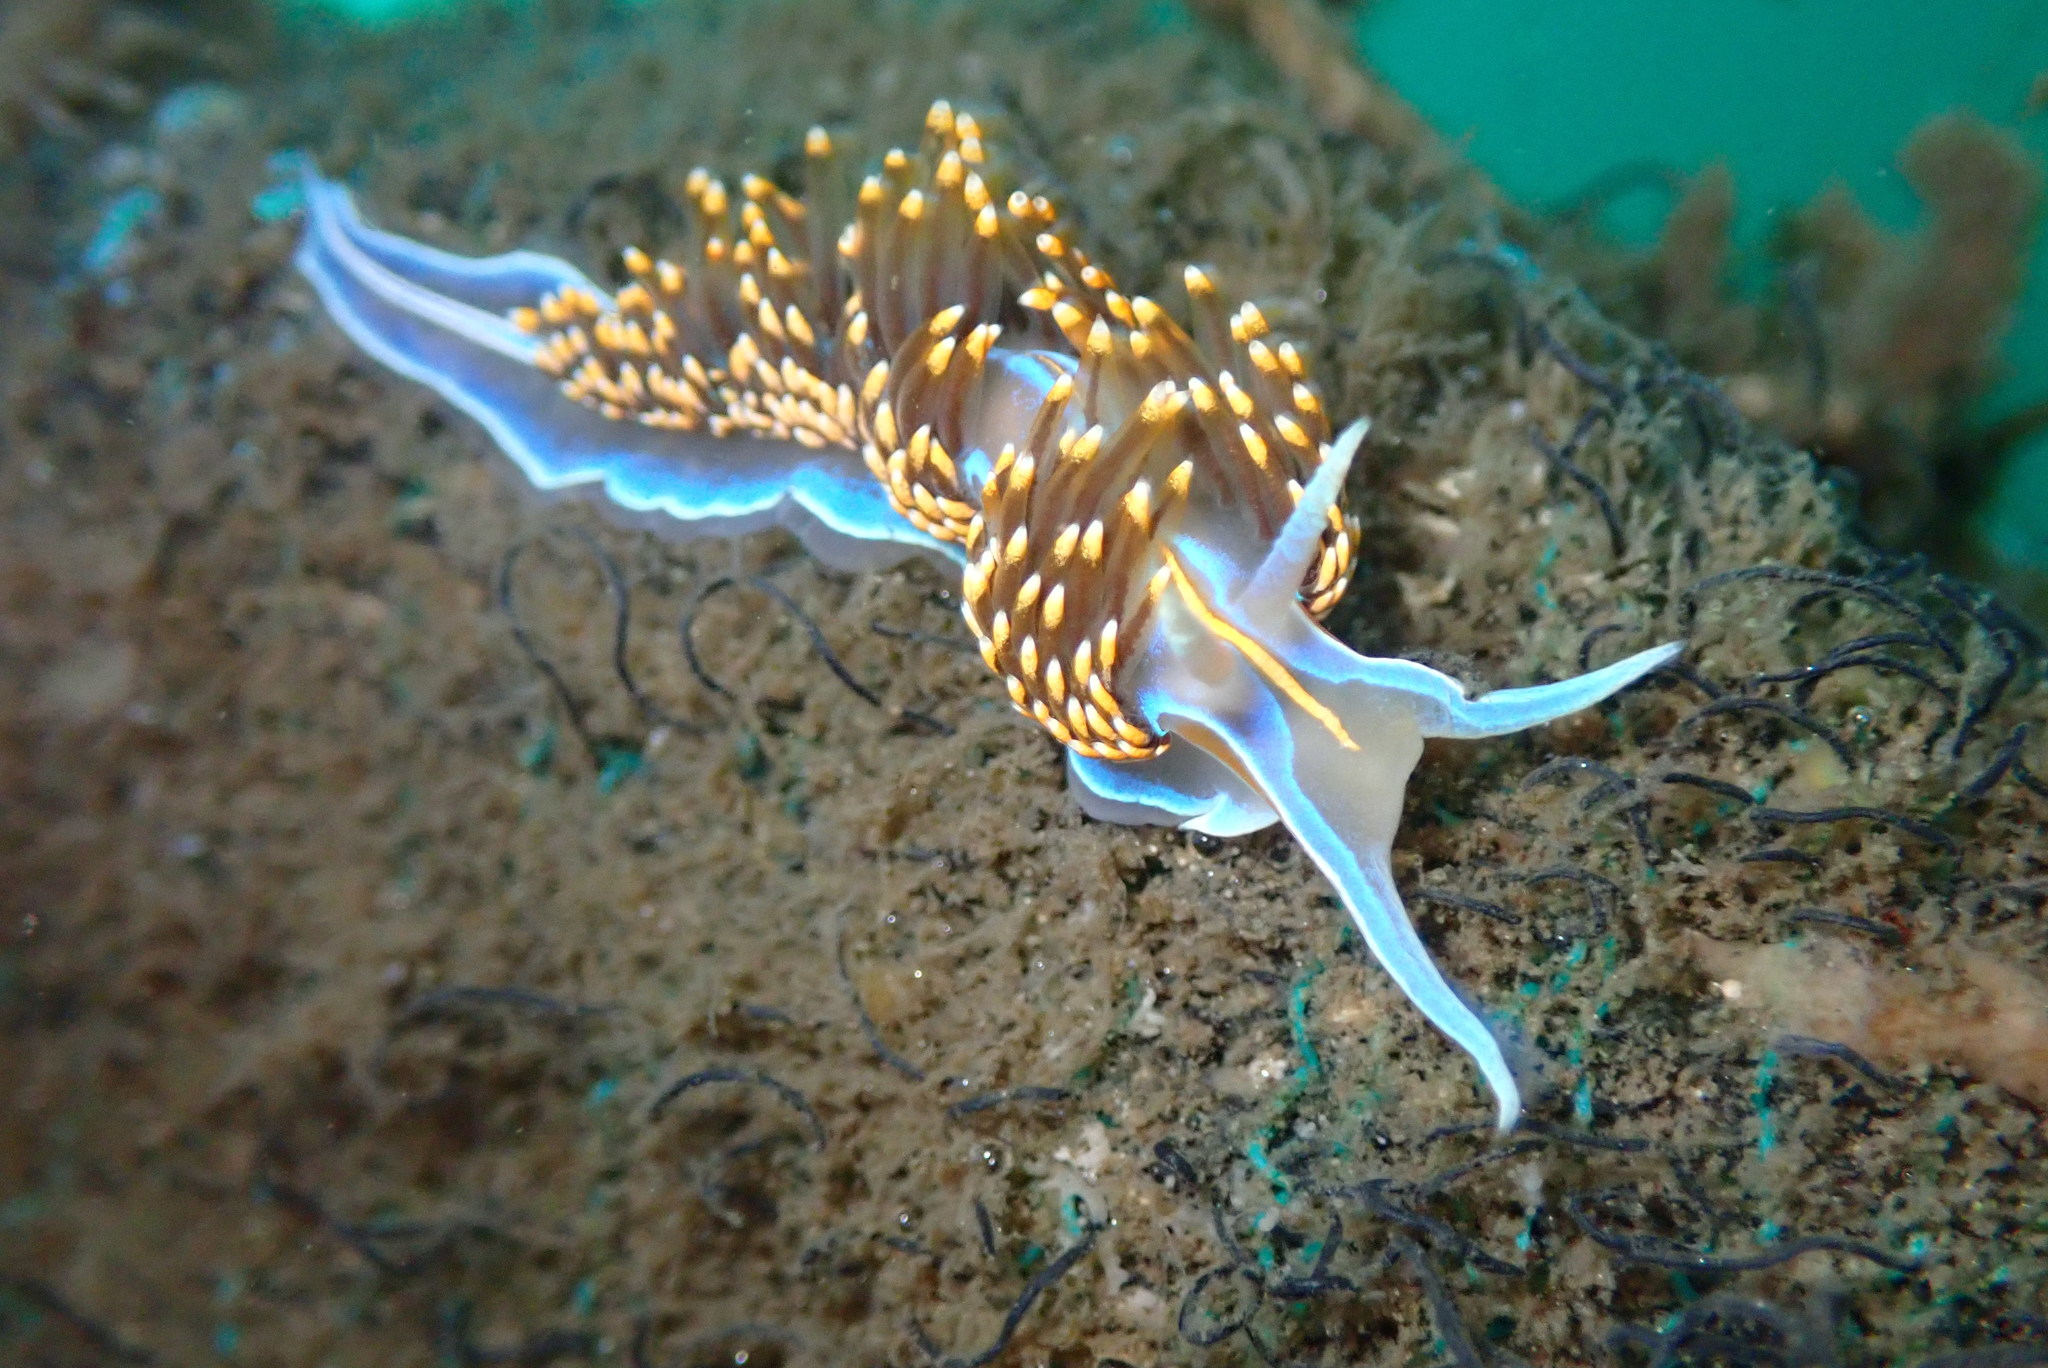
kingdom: Animalia
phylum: Mollusca
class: Gastropoda
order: Nudibranchia
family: Myrrhinidae
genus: Hermissenda
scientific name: Hermissenda opalescens
